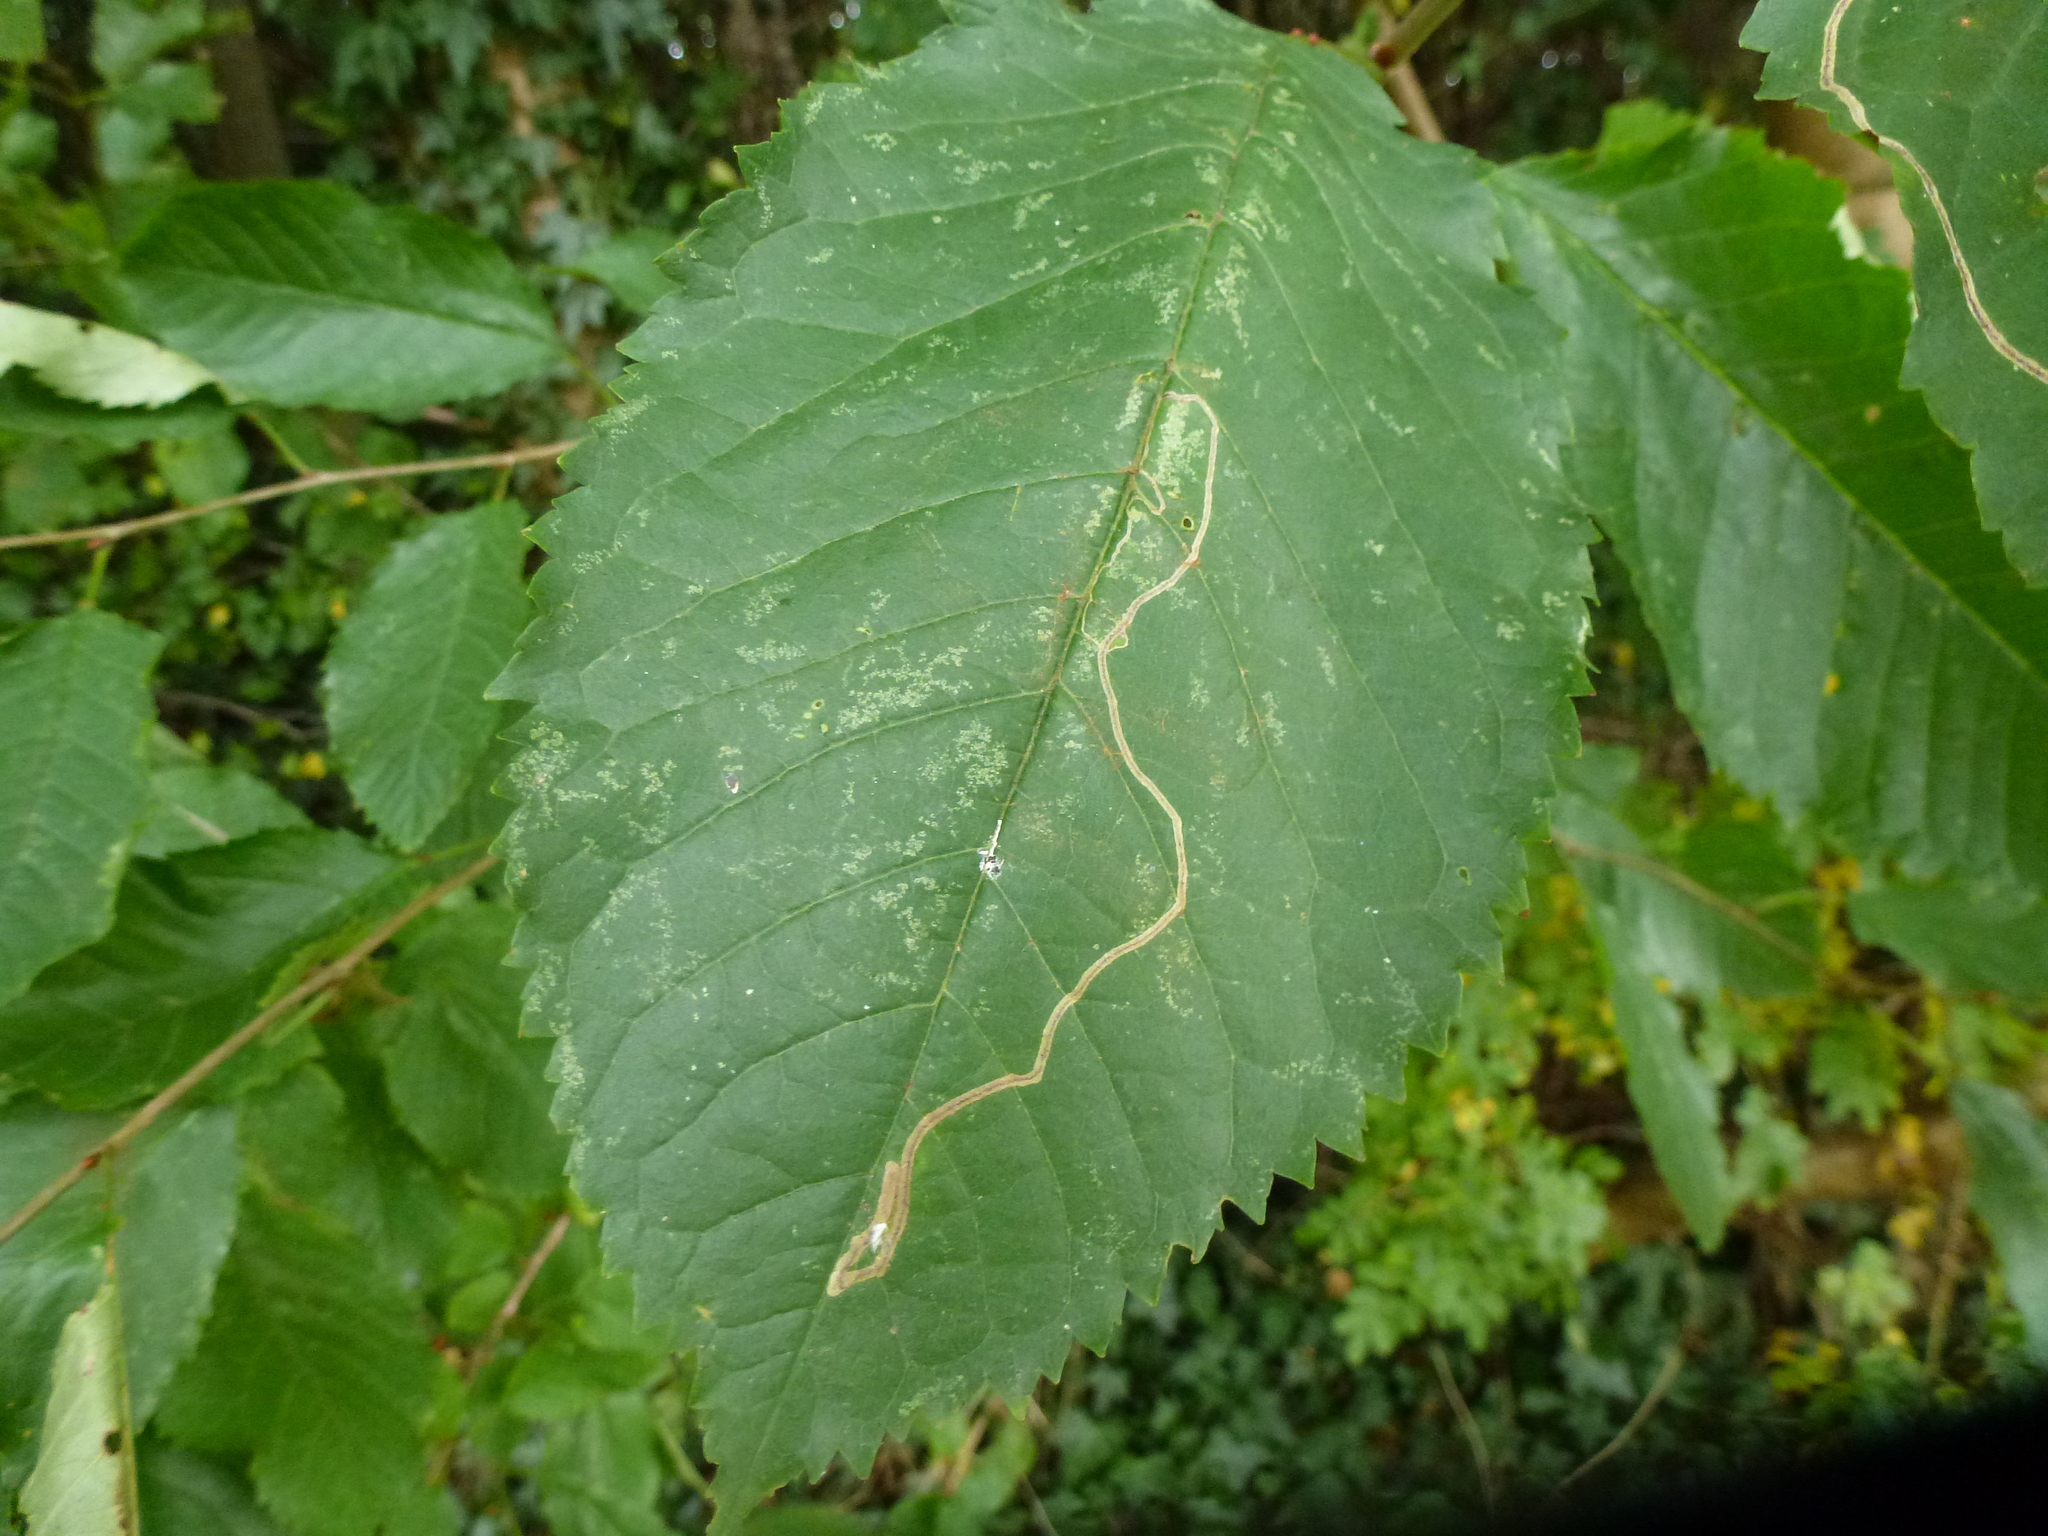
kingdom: Animalia
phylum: Arthropoda
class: Insecta
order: Lepidoptera
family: Lyonetiidae
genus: Lyonetia
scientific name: Lyonetia clerkella
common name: Apple leaf miner
